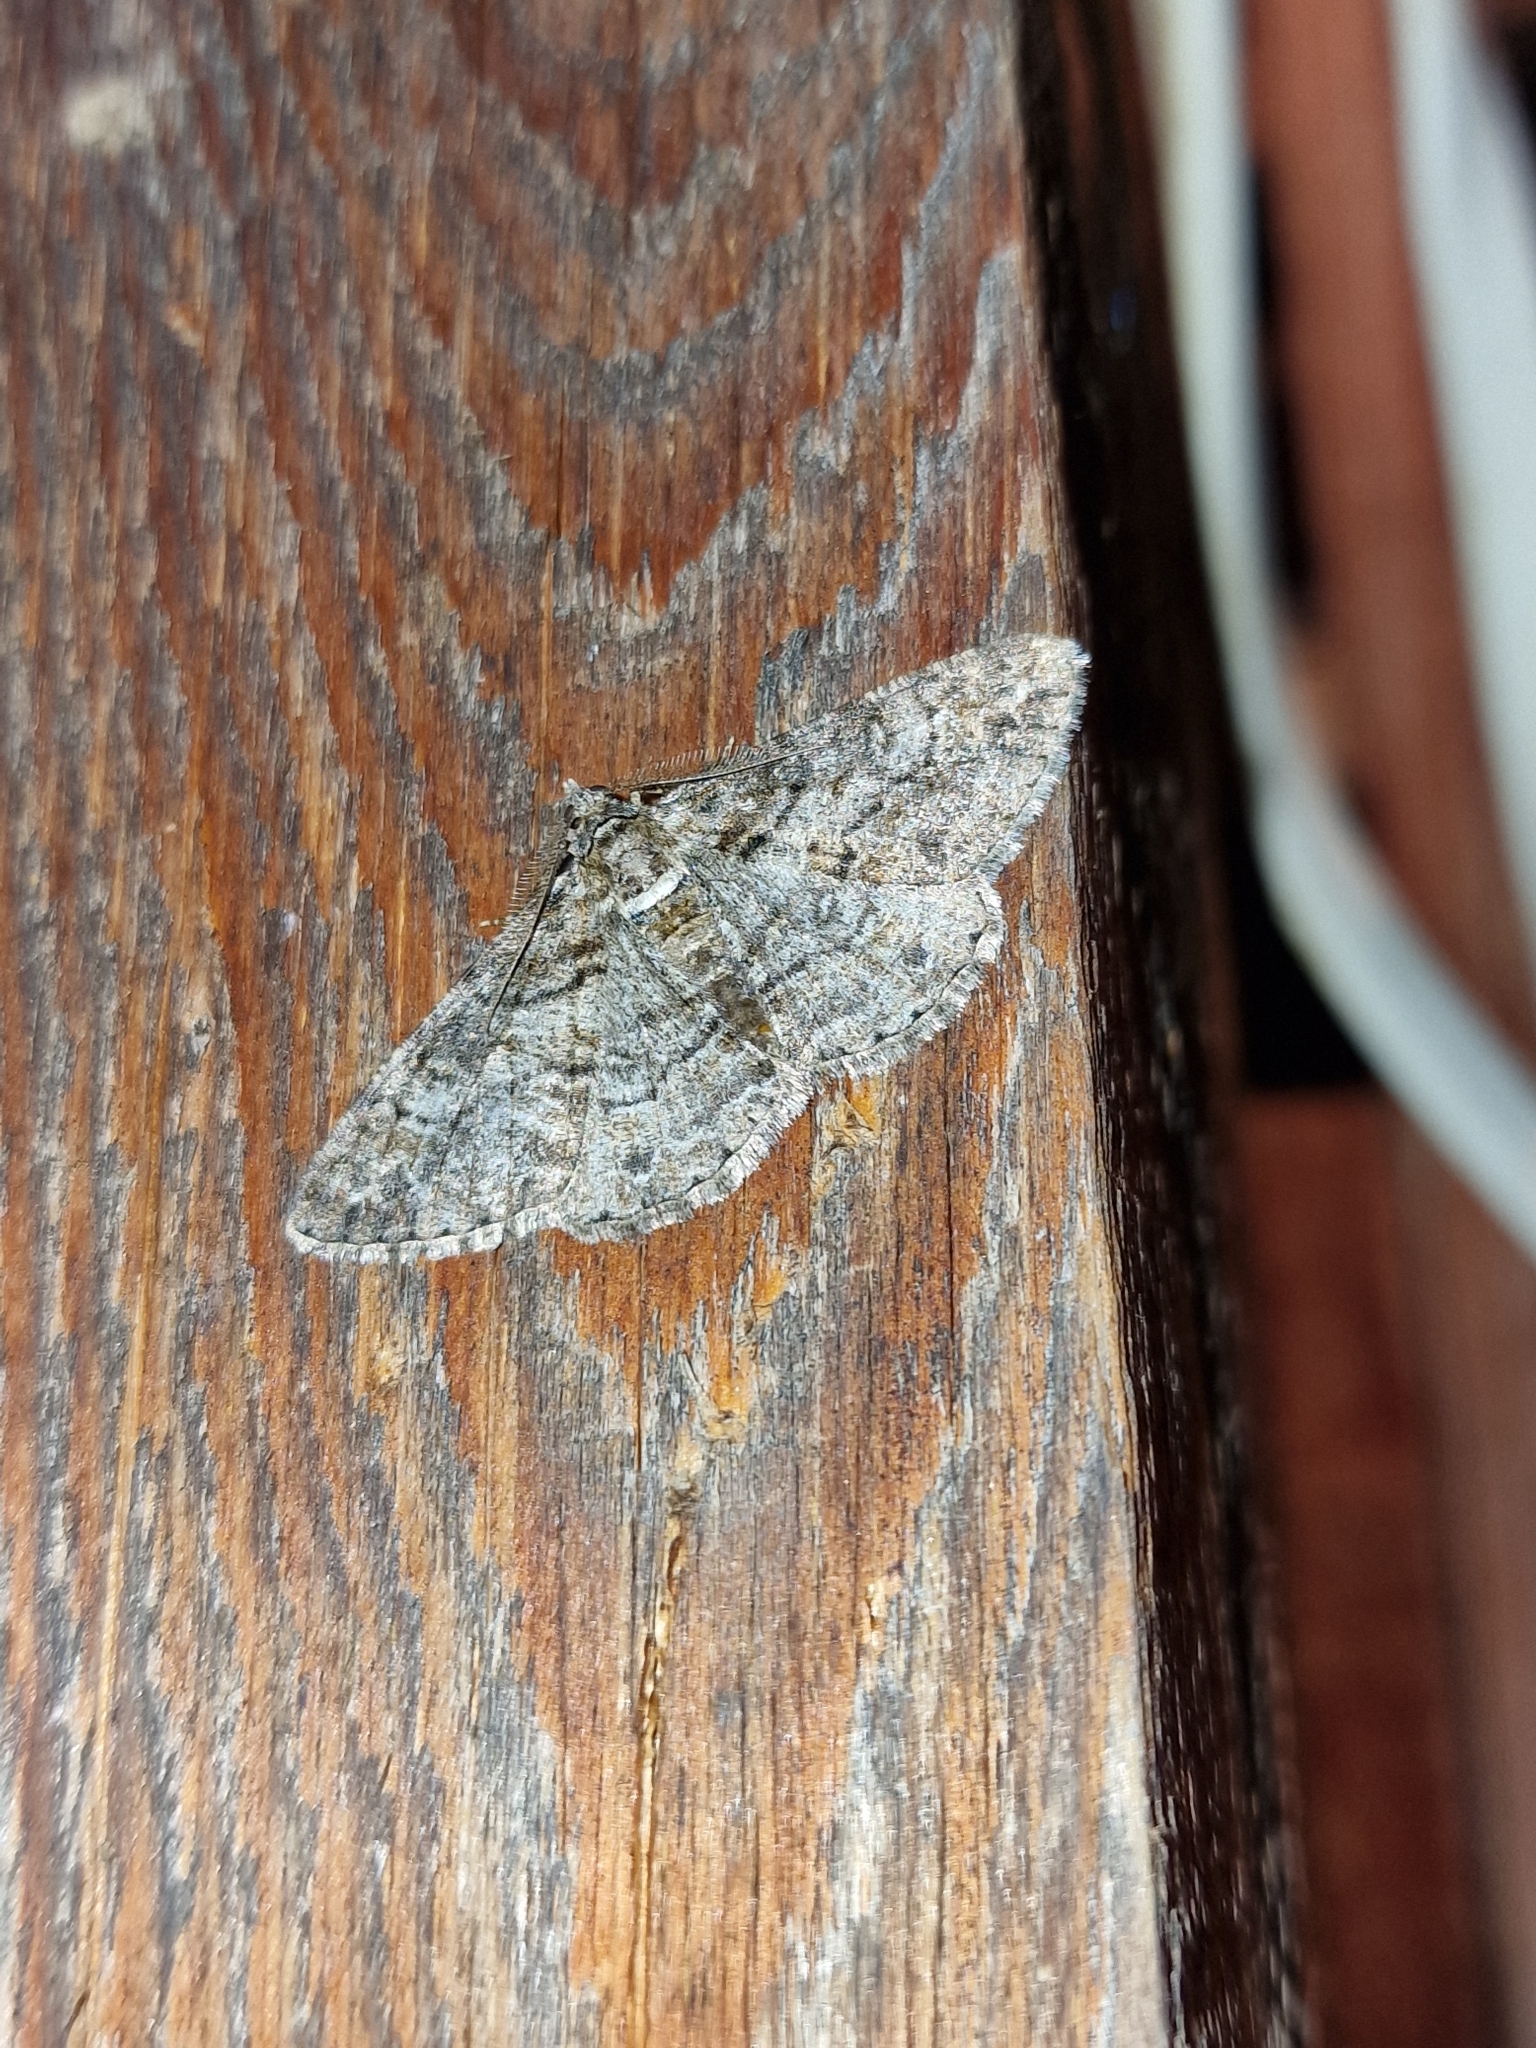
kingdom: Animalia
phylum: Arthropoda
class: Insecta
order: Lepidoptera
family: Geometridae
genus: Cleora
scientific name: Cleora cinctaria
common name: Ringed carpet
